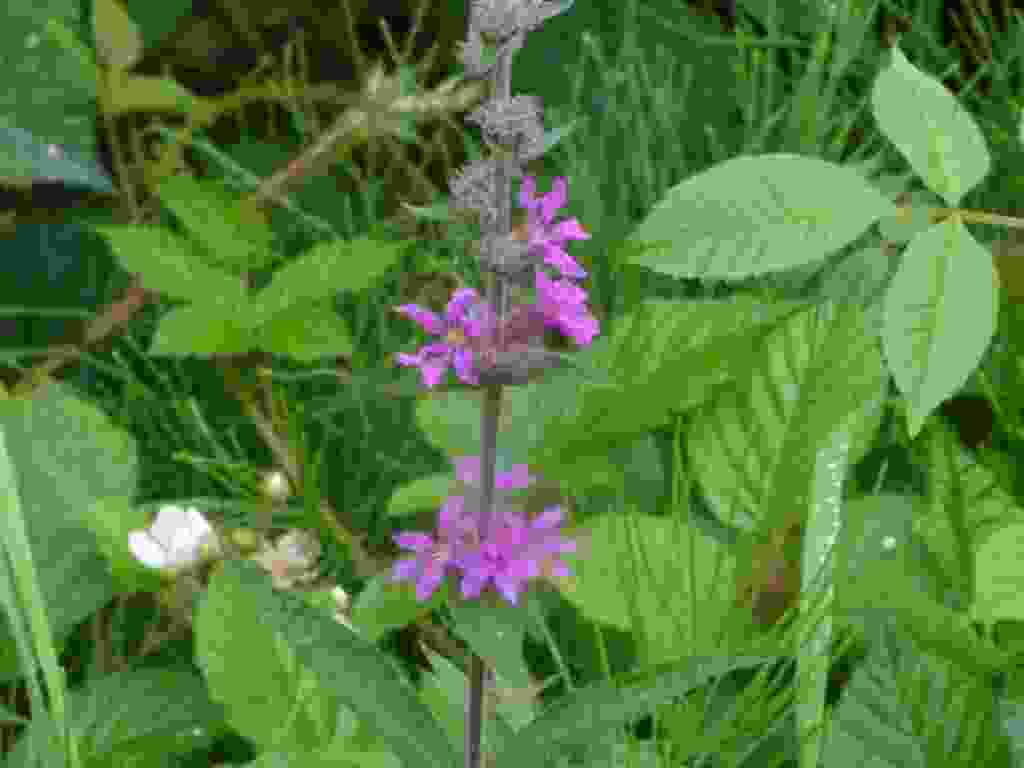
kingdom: Plantae
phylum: Tracheophyta
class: Magnoliopsida
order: Myrtales
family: Lythraceae
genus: Lythrum
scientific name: Lythrum salicaria
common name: Purple loosestrife
